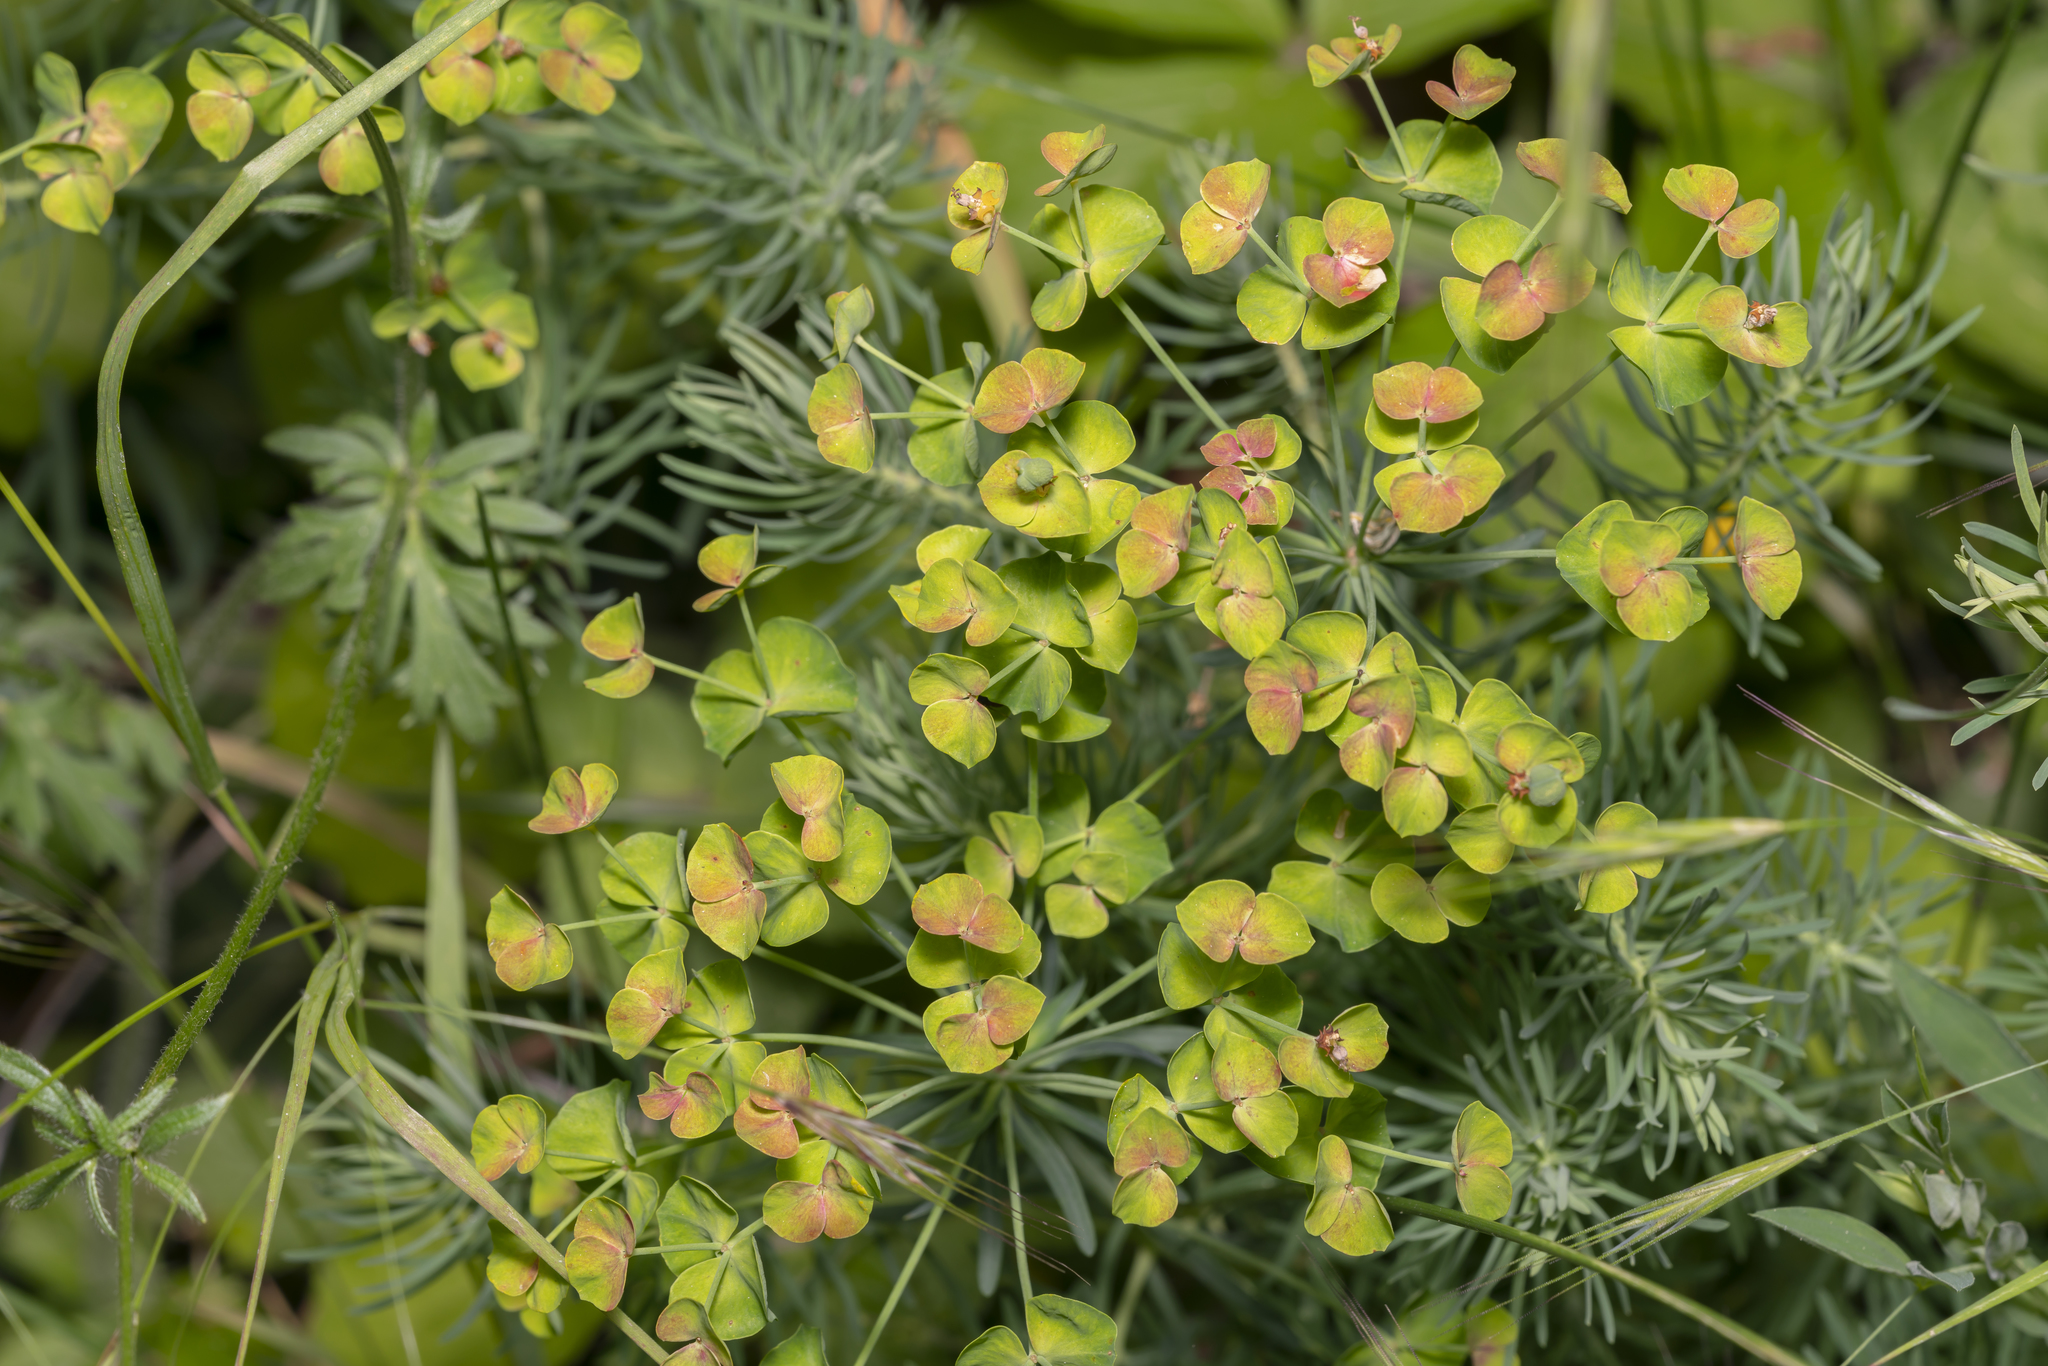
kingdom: Plantae
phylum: Tracheophyta
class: Magnoliopsida
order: Malpighiales
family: Euphorbiaceae
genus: Euphorbia
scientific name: Euphorbia cyparissias
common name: Cypress spurge
